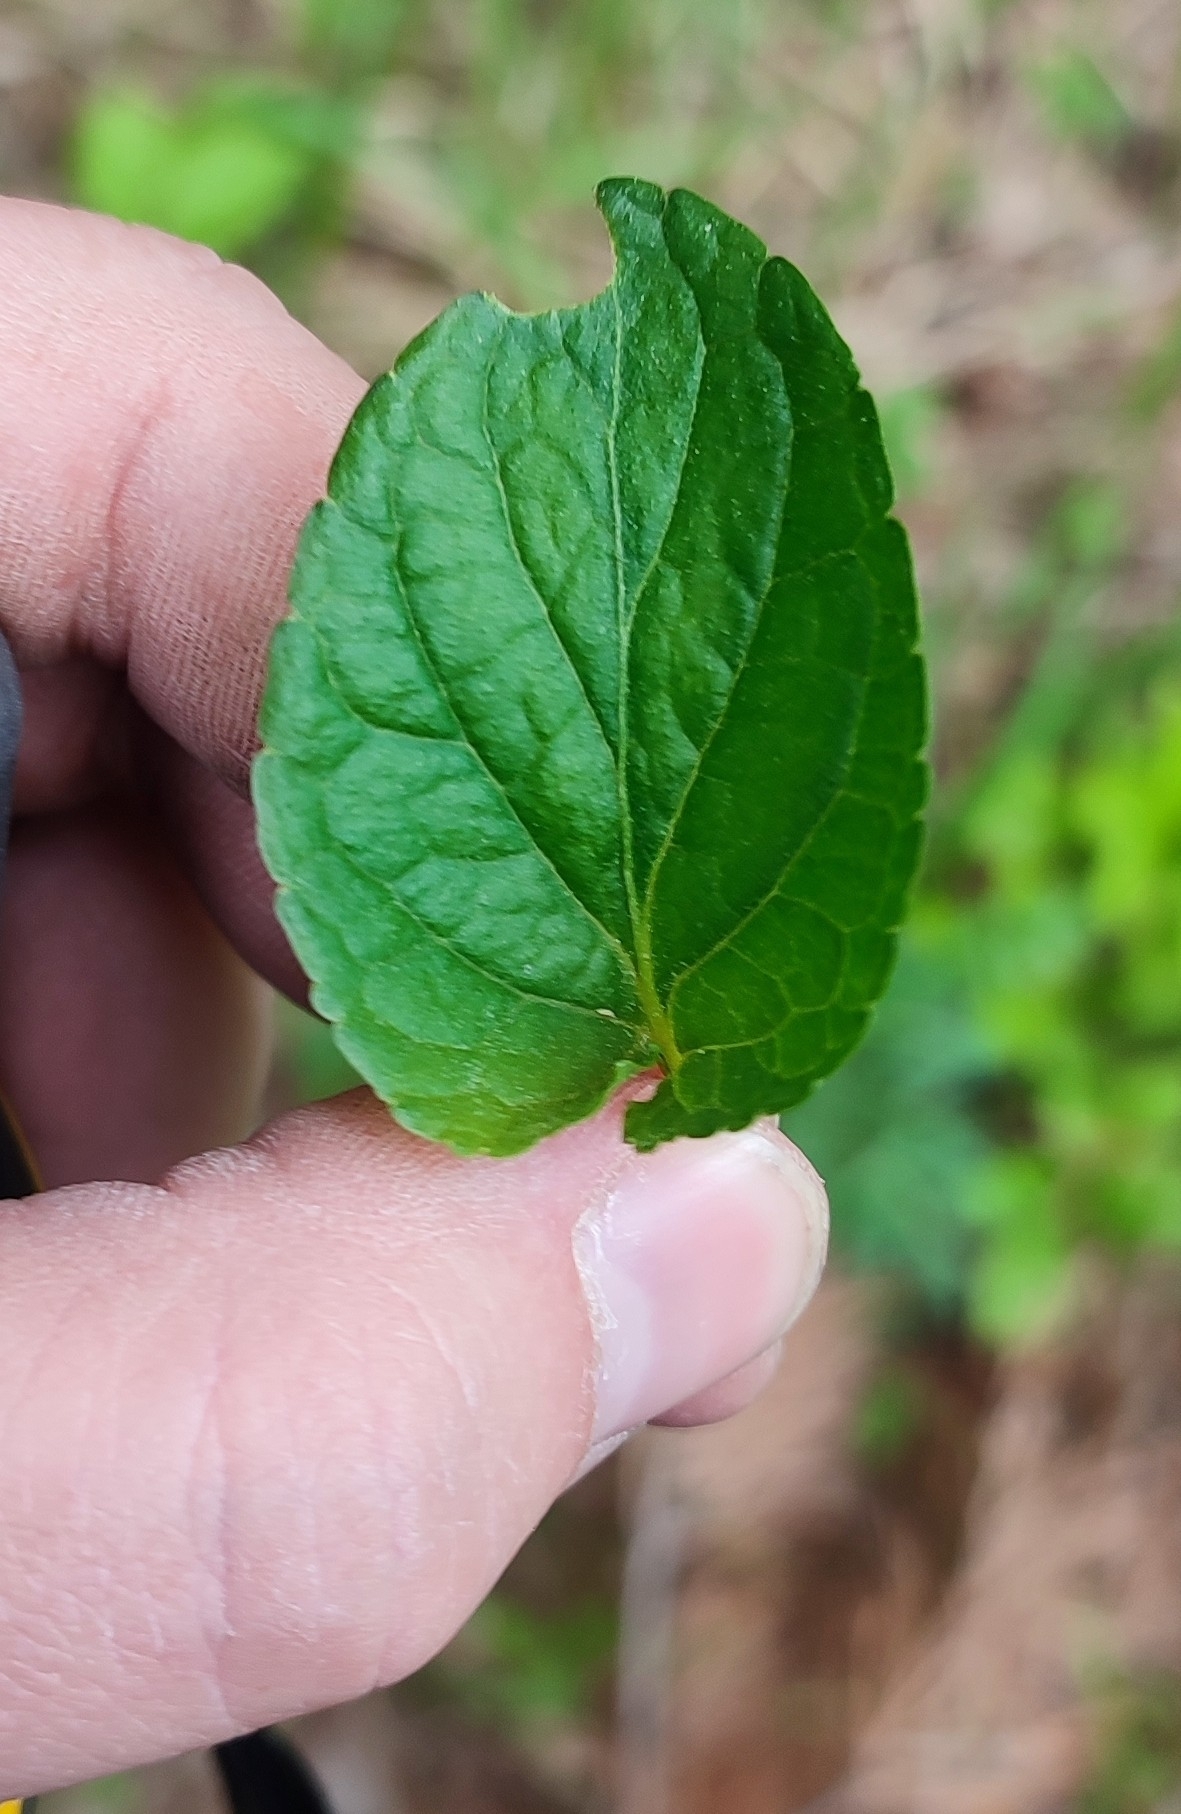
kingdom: Plantae
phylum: Tracheophyta
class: Magnoliopsida
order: Malpighiales
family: Violaceae
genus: Viola
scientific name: Viola
